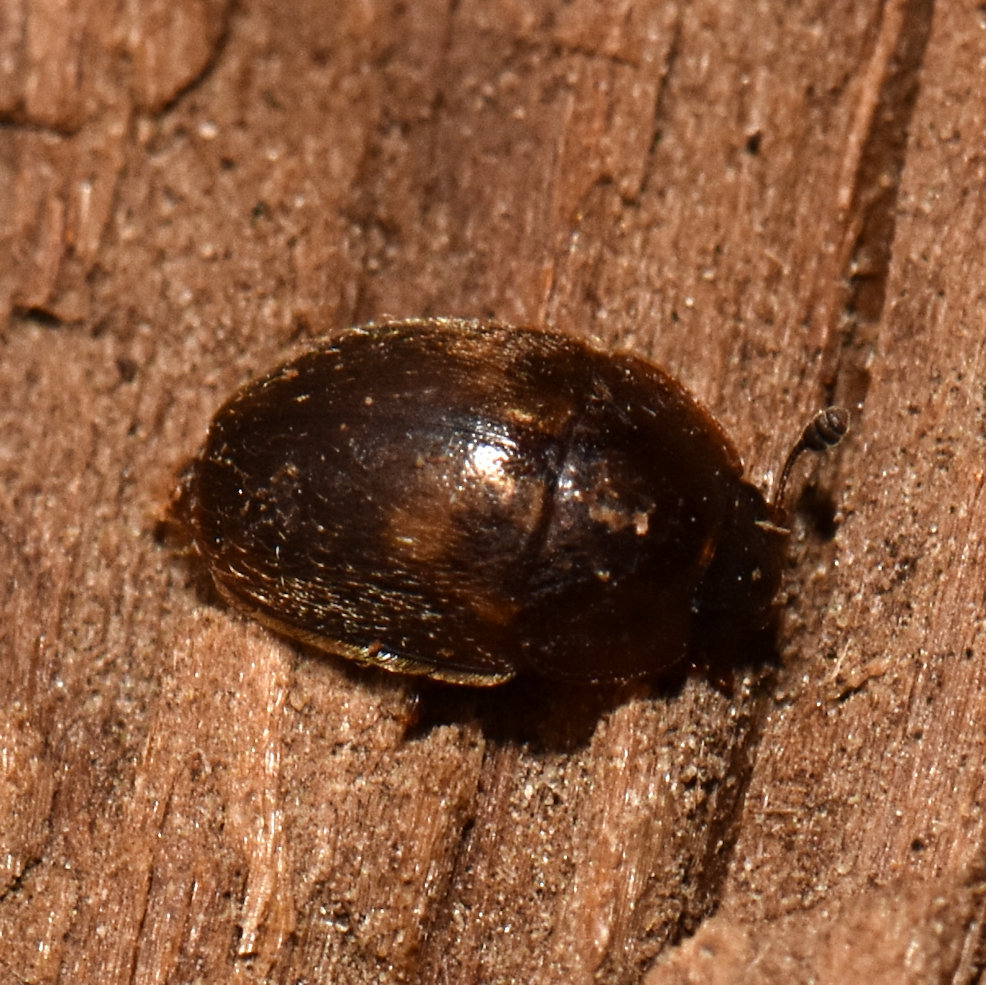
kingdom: Animalia
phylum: Arthropoda
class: Insecta
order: Coleoptera
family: Nitidulidae
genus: Amphicrossus
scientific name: Amphicrossus ciliatus
